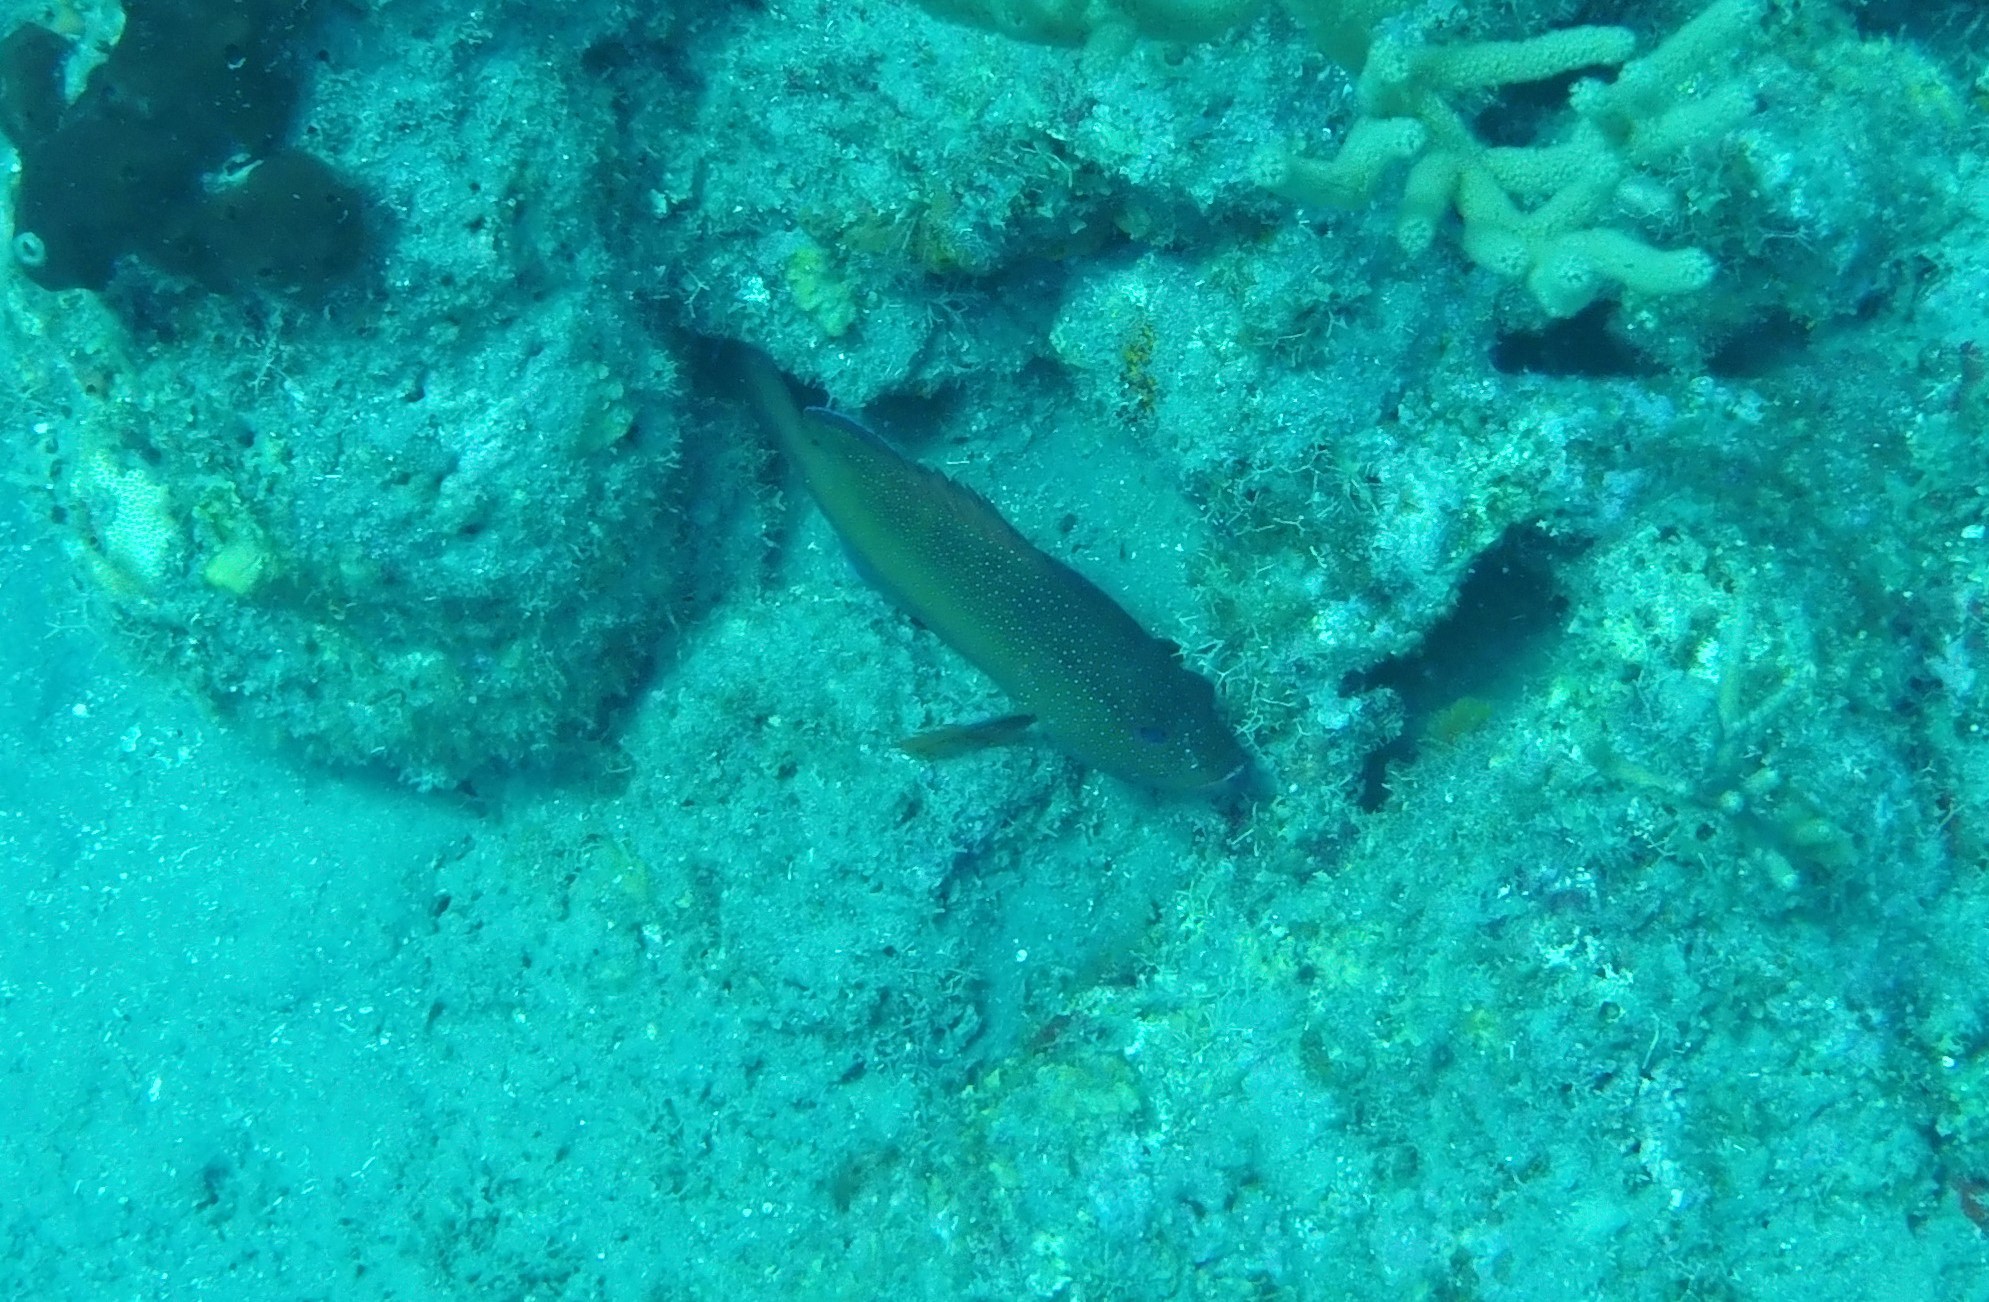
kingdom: Animalia
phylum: Chordata
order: Perciformes
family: Serranidae
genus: Cephalopholis
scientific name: Cephalopholis fulva
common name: Butterfish
